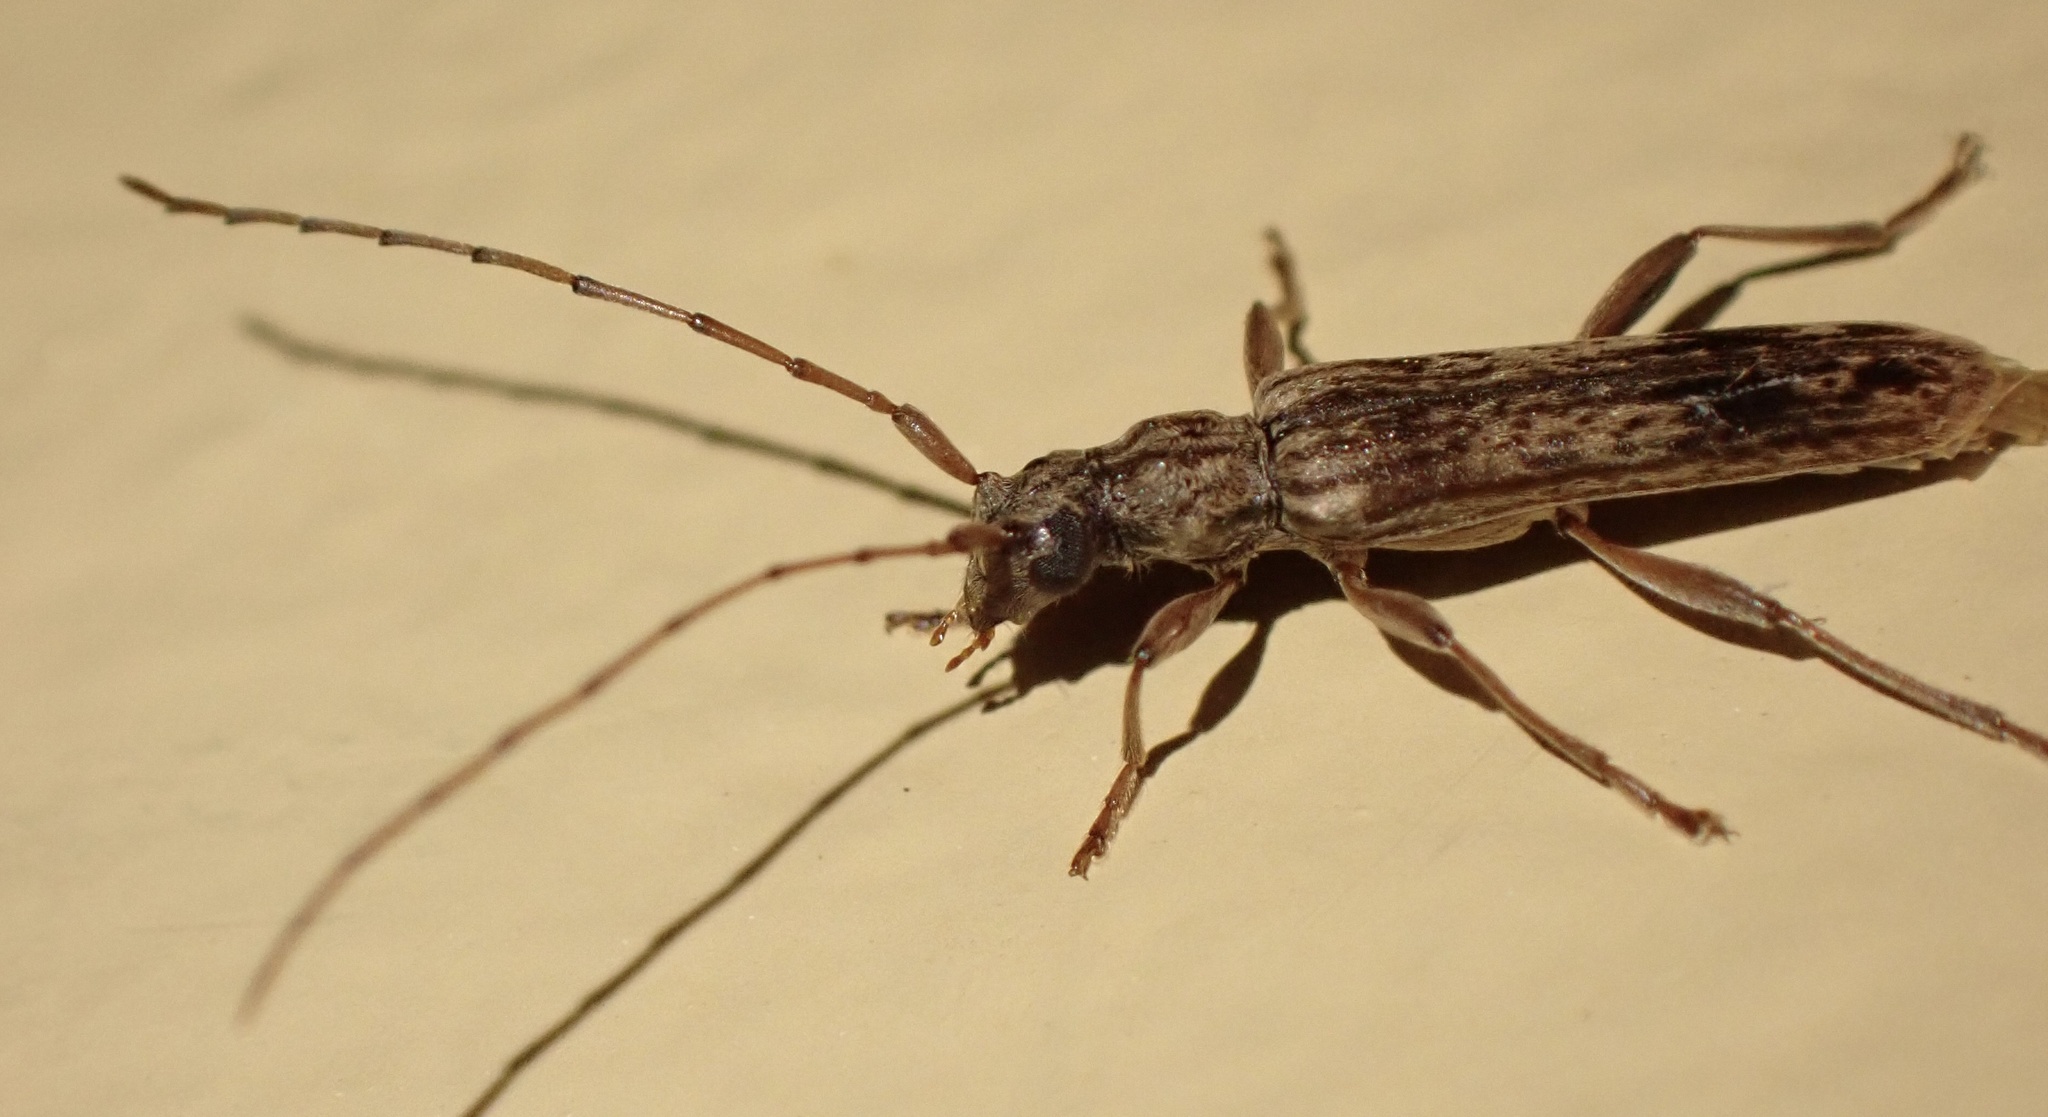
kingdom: Animalia
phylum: Arthropoda
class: Insecta
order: Coleoptera
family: Cerambycidae
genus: Capegaster
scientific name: Capegaster striatus
